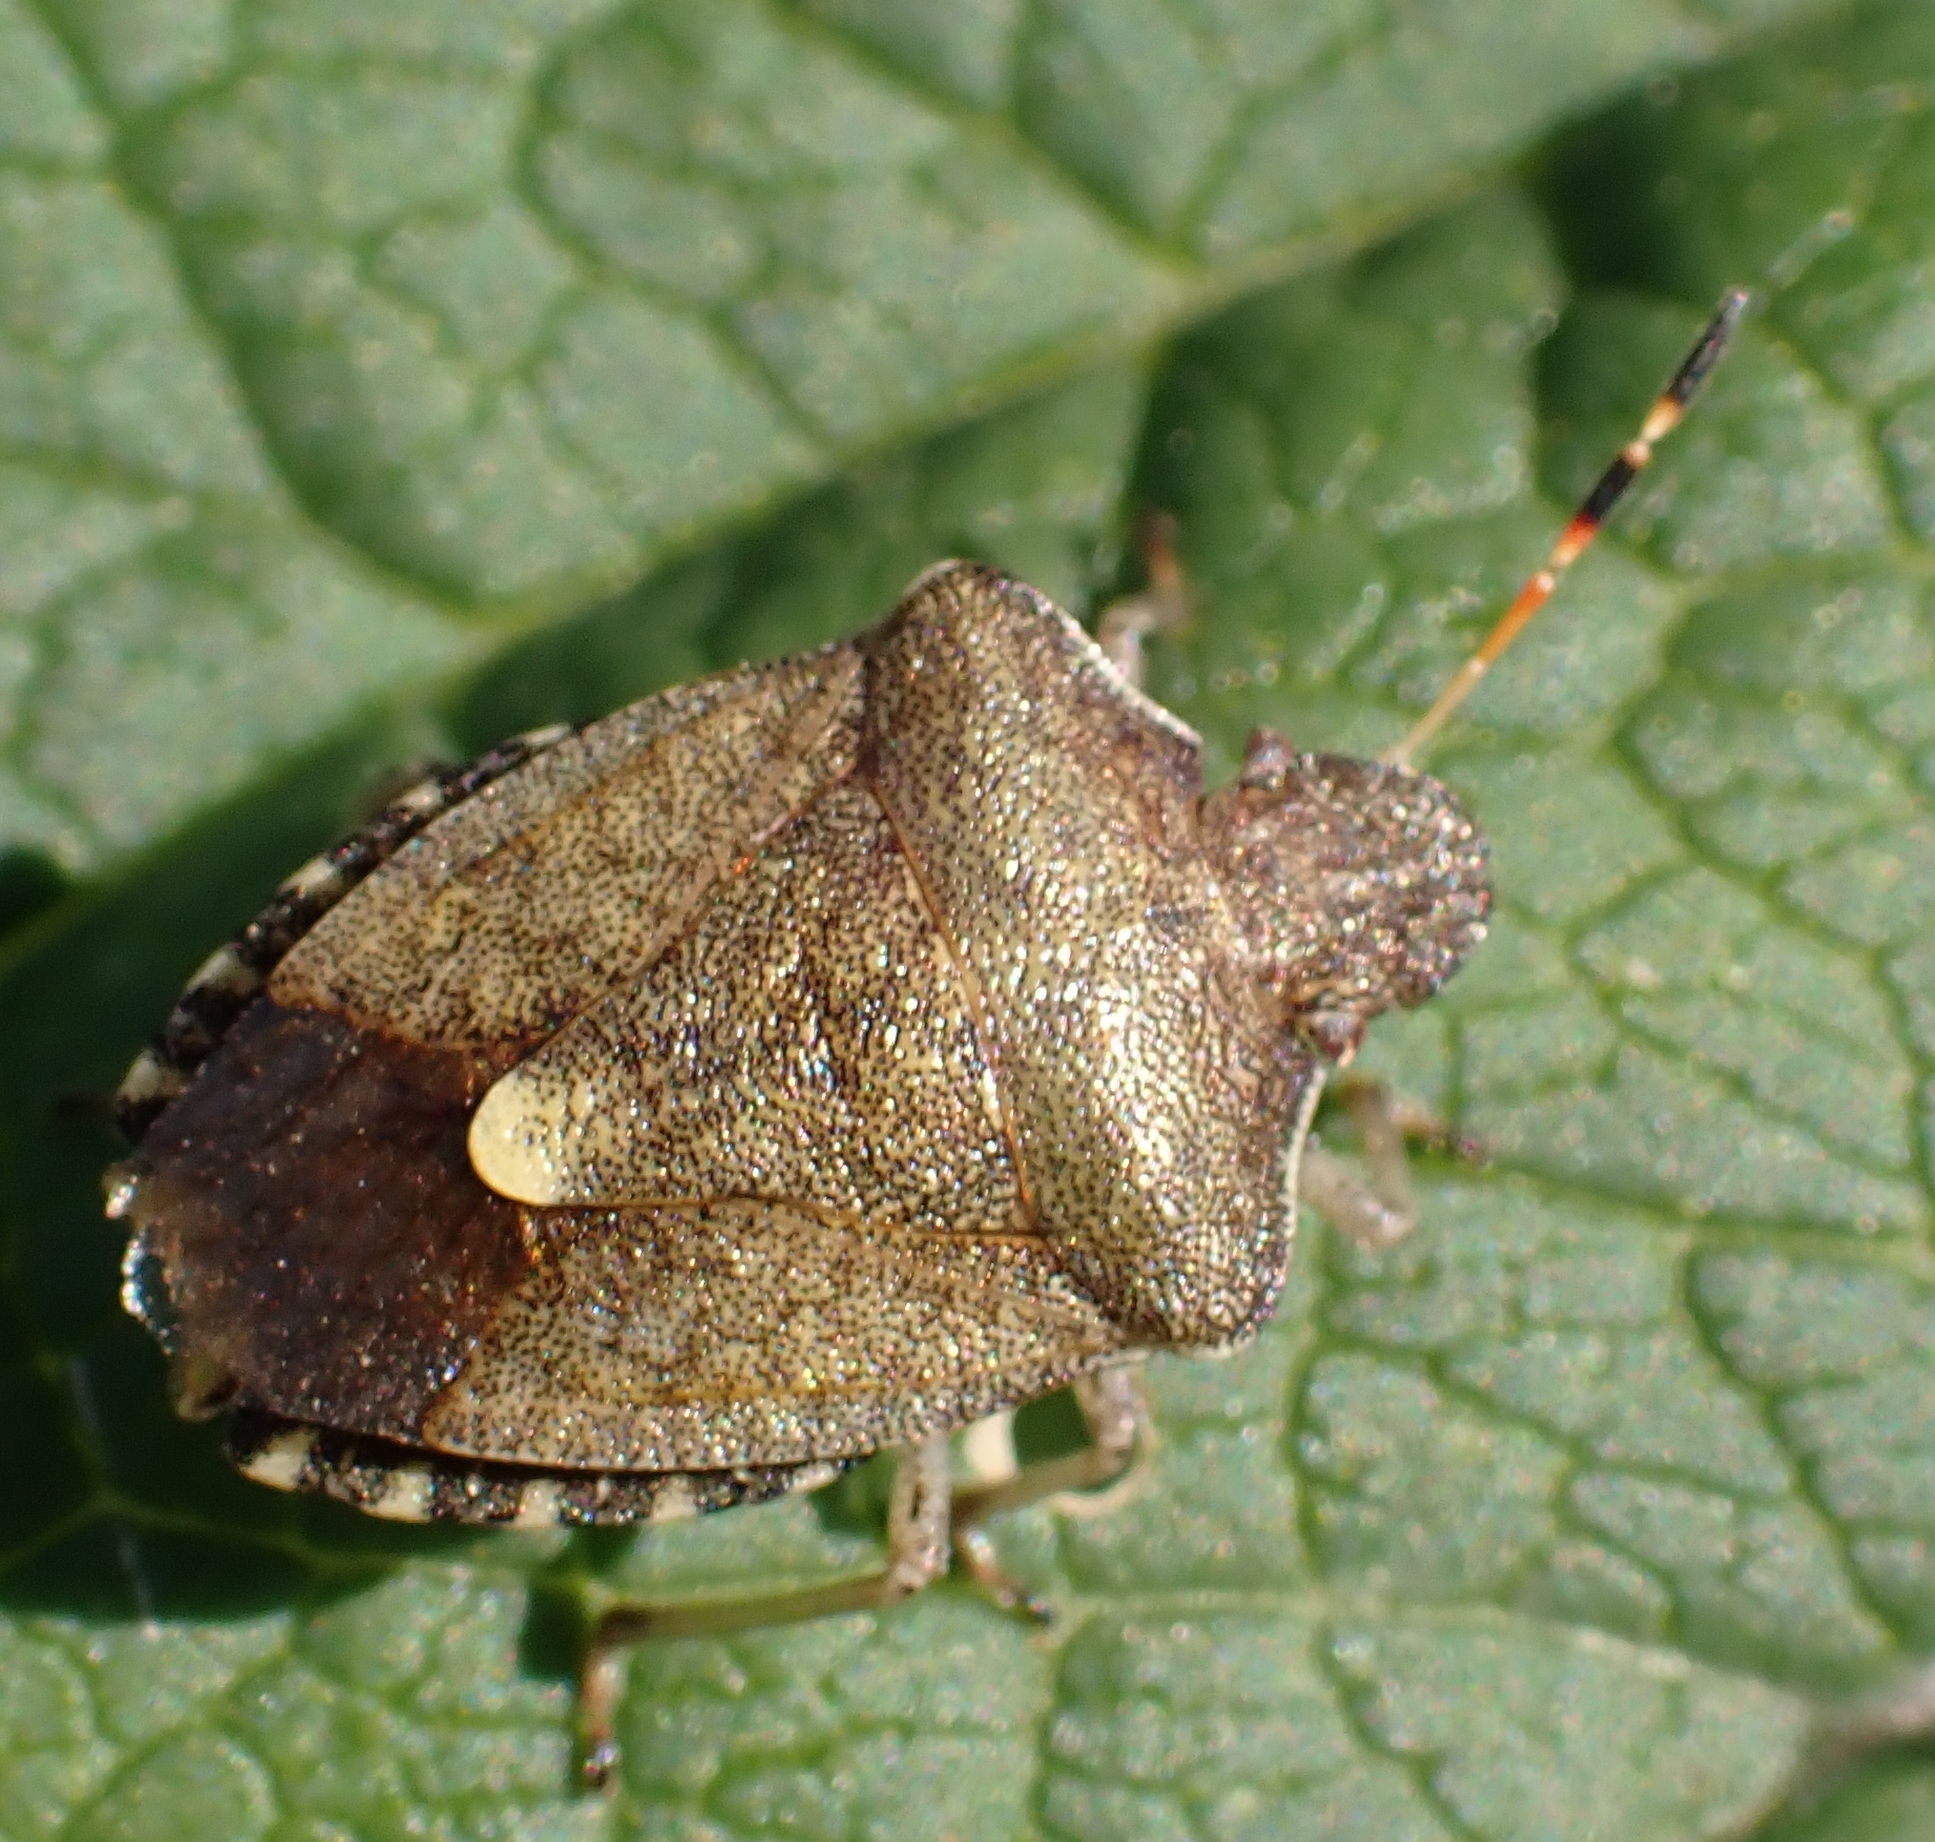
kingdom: Animalia
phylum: Arthropoda
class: Insecta
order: Hemiptera
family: Pentatomidae
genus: Holcostethus
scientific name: Holcostethus strictus
